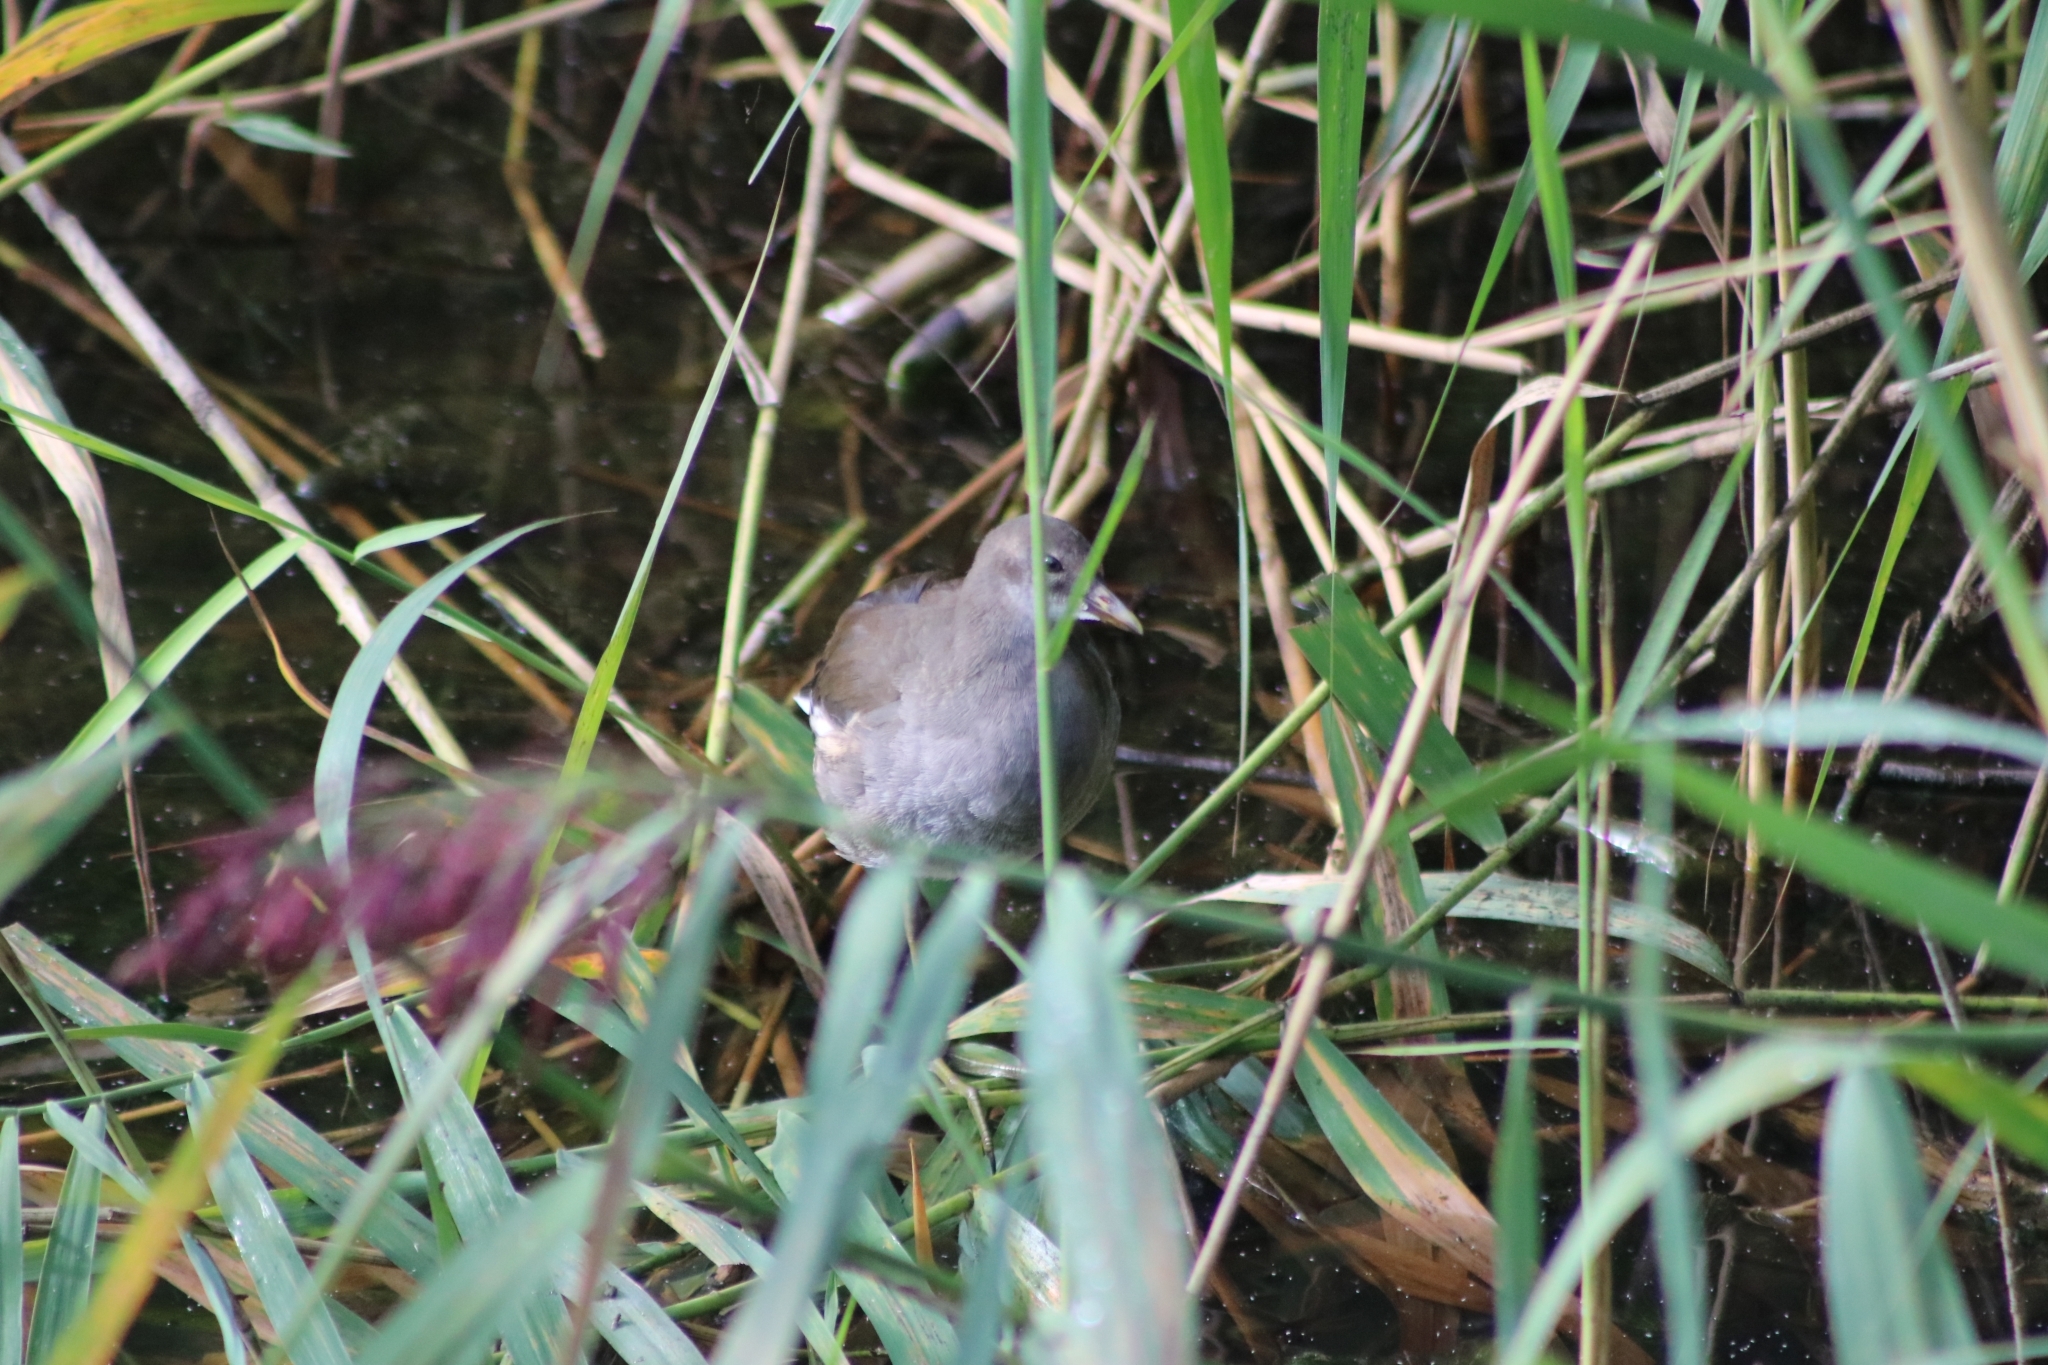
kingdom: Animalia
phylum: Chordata
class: Aves
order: Gruiformes
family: Rallidae
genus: Gallinula
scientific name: Gallinula chloropus
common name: Common moorhen
